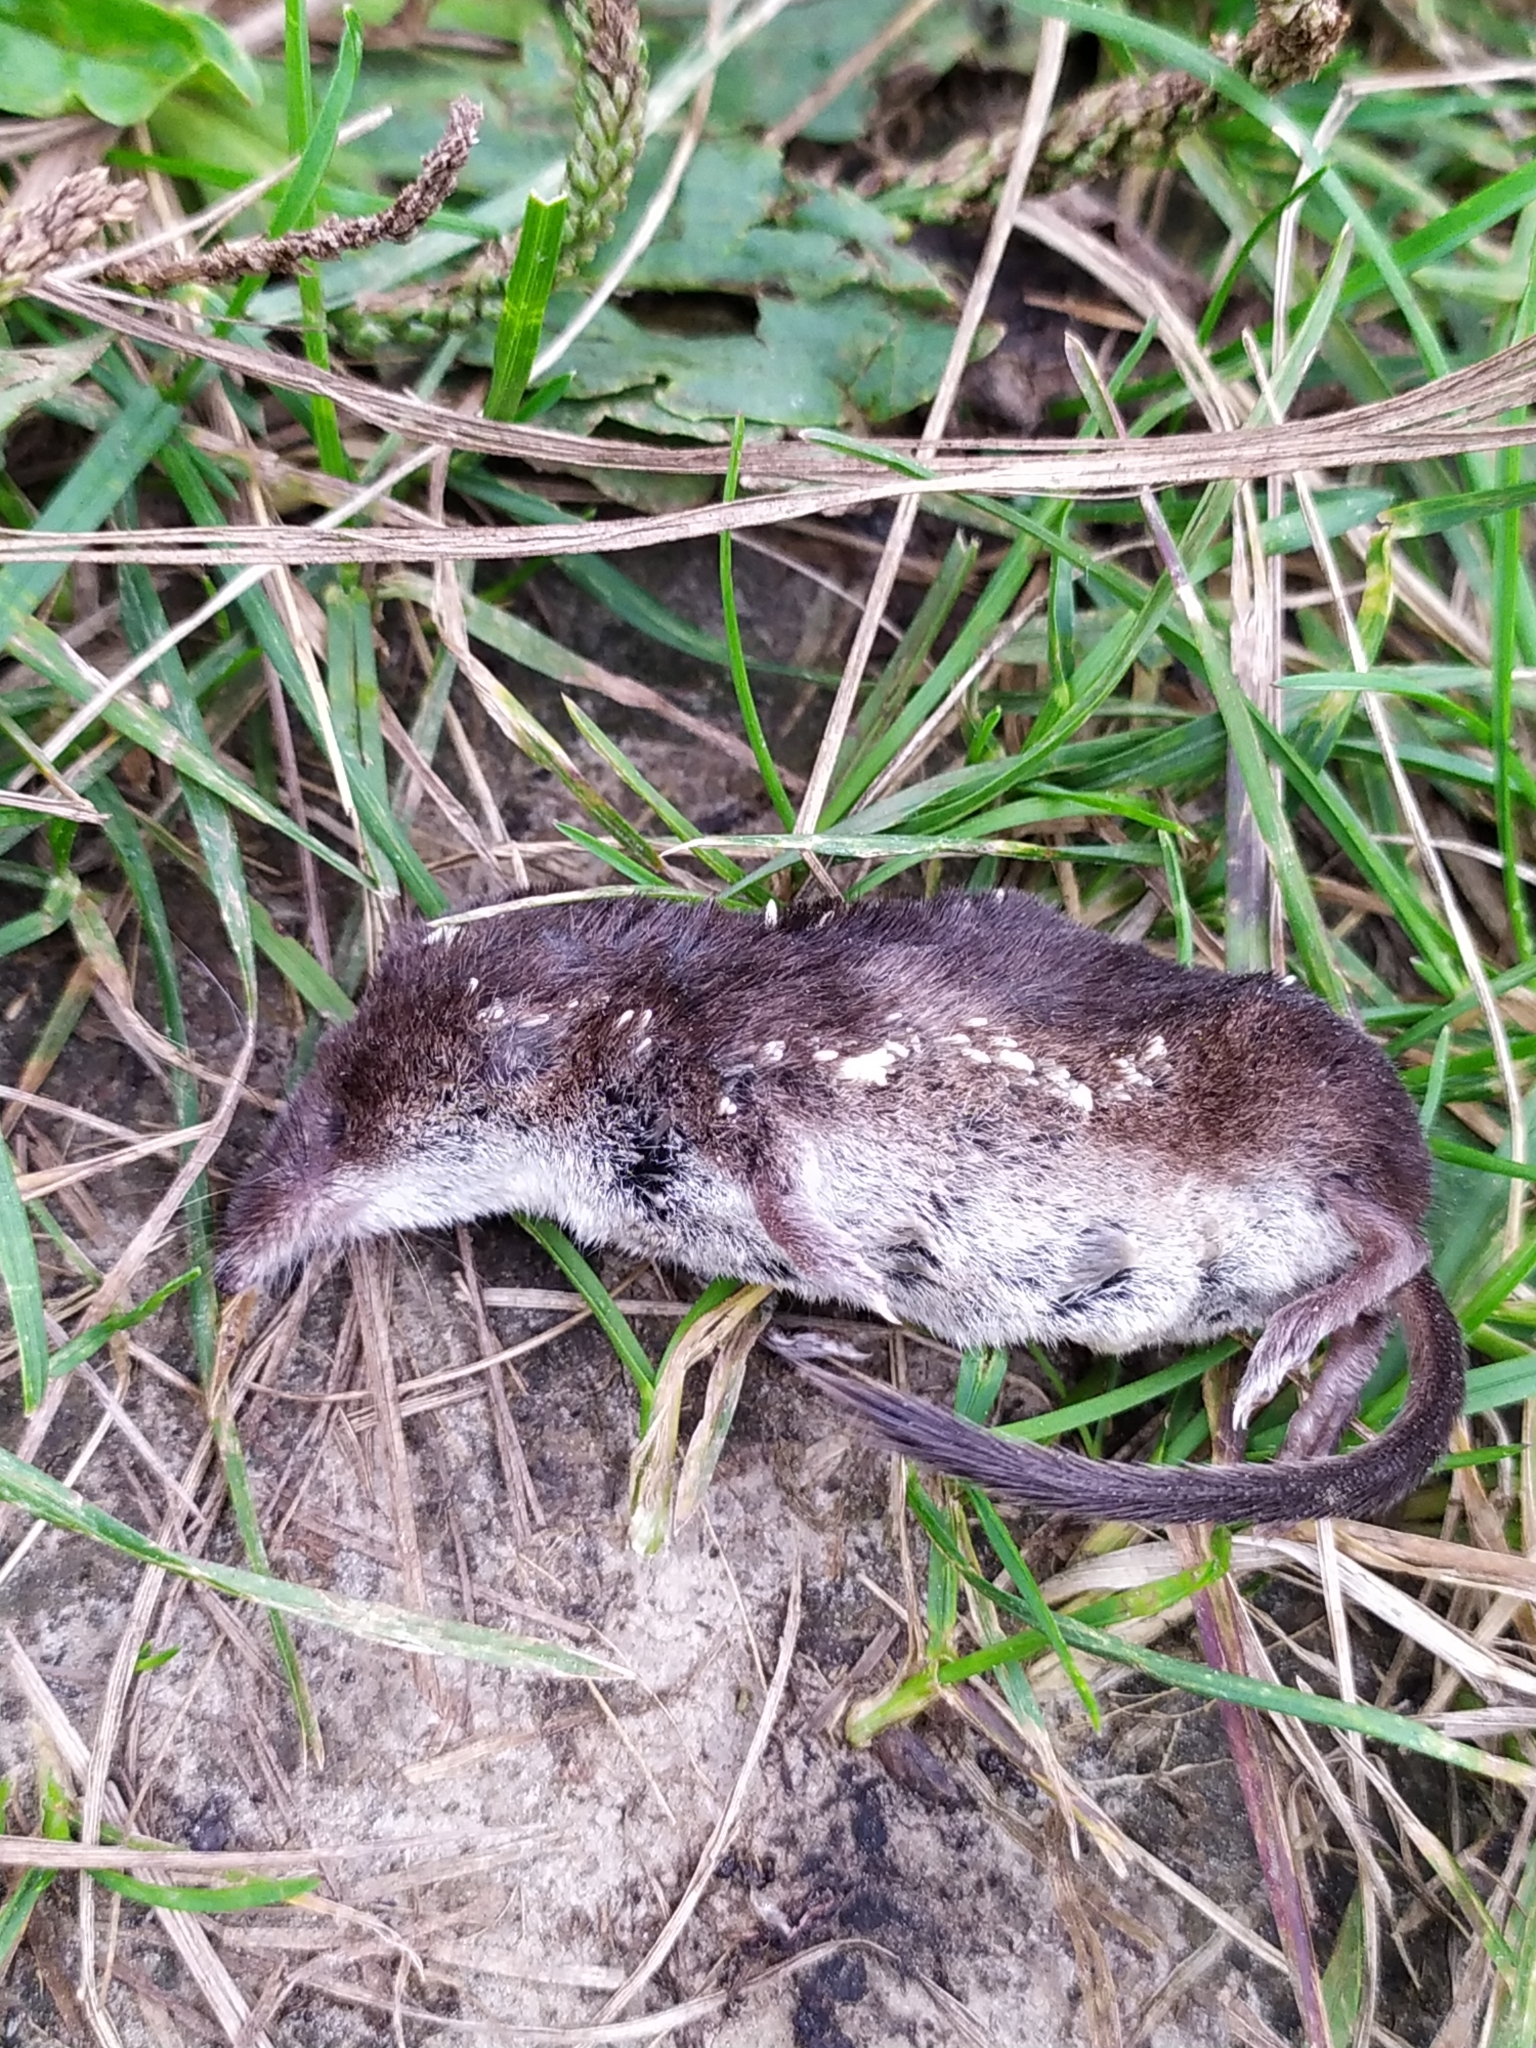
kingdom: Animalia
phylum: Chordata
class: Mammalia
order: Soricomorpha
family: Soricidae
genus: Sorex
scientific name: Sorex araneus
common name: Common shrew
